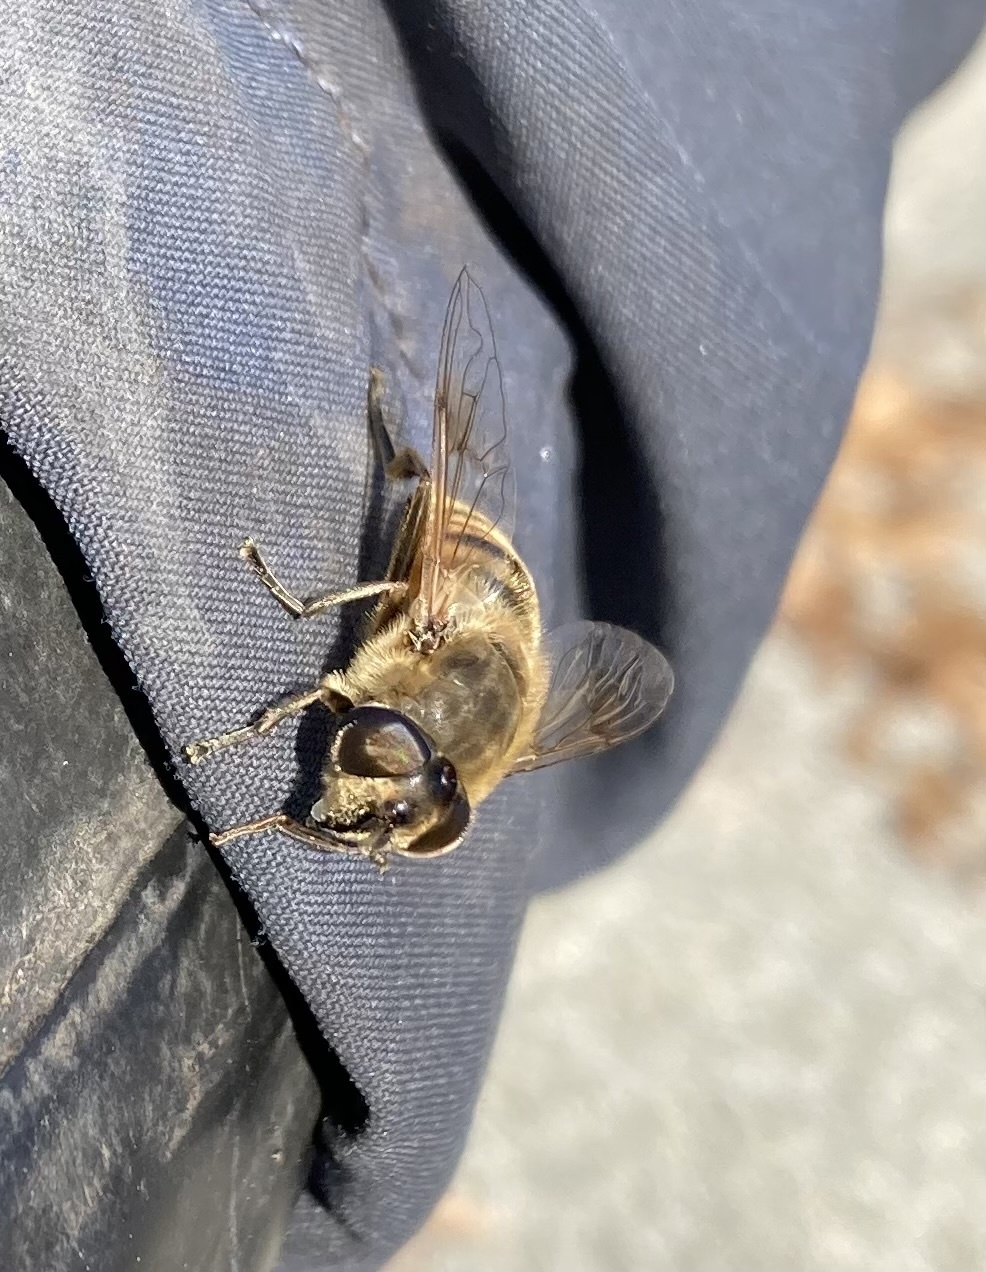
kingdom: Animalia
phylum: Arthropoda
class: Insecta
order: Diptera
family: Syrphidae
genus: Eristalis
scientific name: Eristalis tenax
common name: Drone fly
